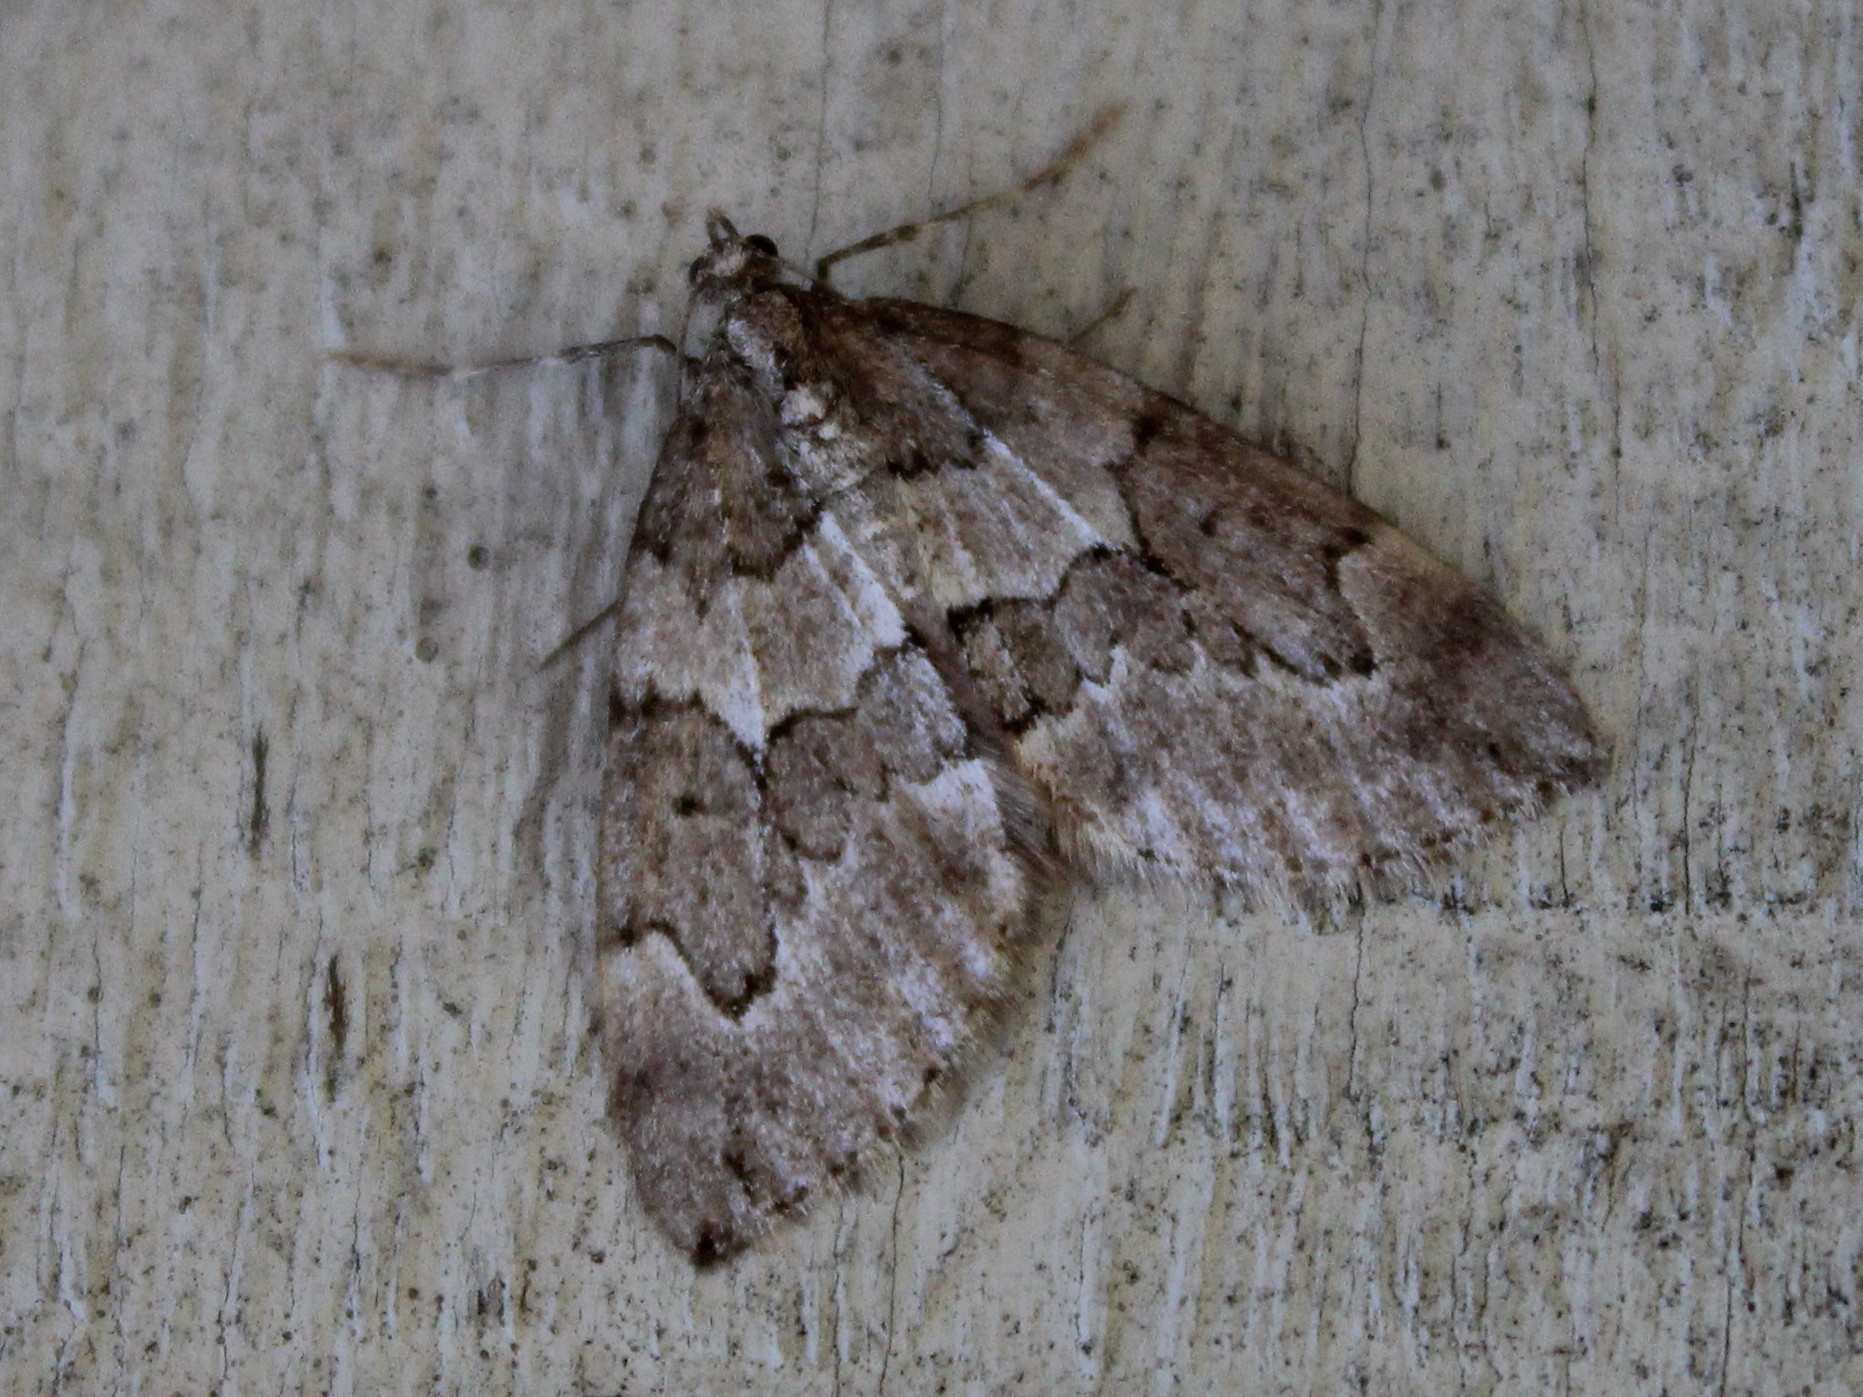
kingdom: Animalia
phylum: Arthropoda
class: Insecta
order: Lepidoptera
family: Geometridae
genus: Thera
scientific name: Thera juniperata
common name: Juniper carpet
